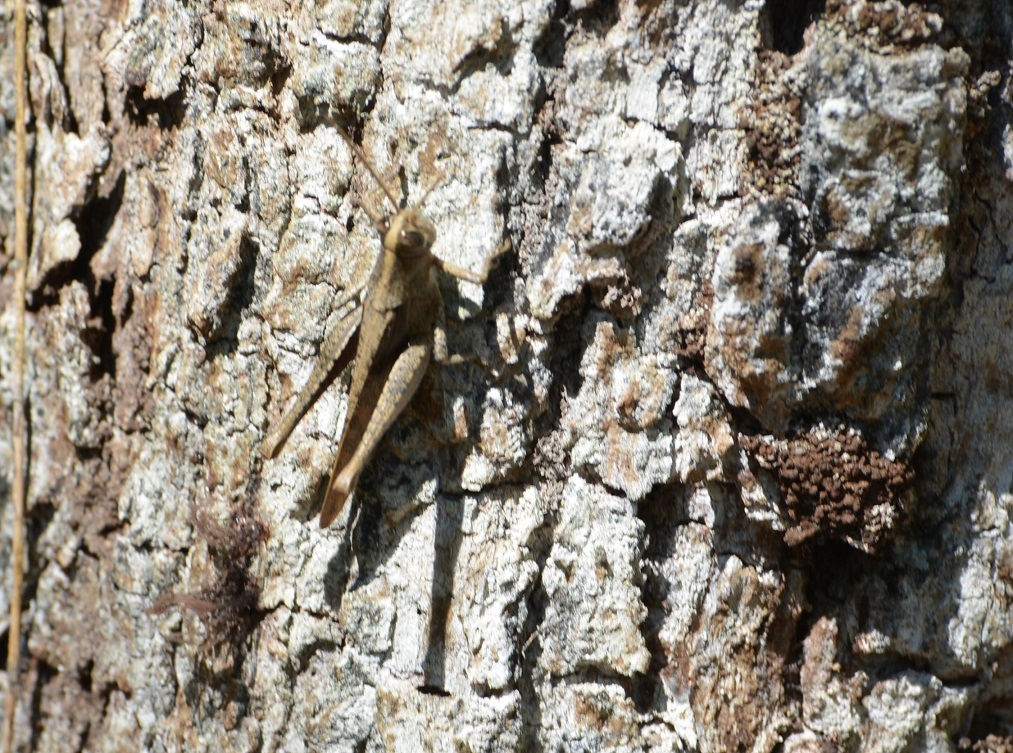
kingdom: Animalia
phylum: Arthropoda
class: Insecta
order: Orthoptera
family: Acrididae
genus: Schistocerca
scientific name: Schistocerca camerata
